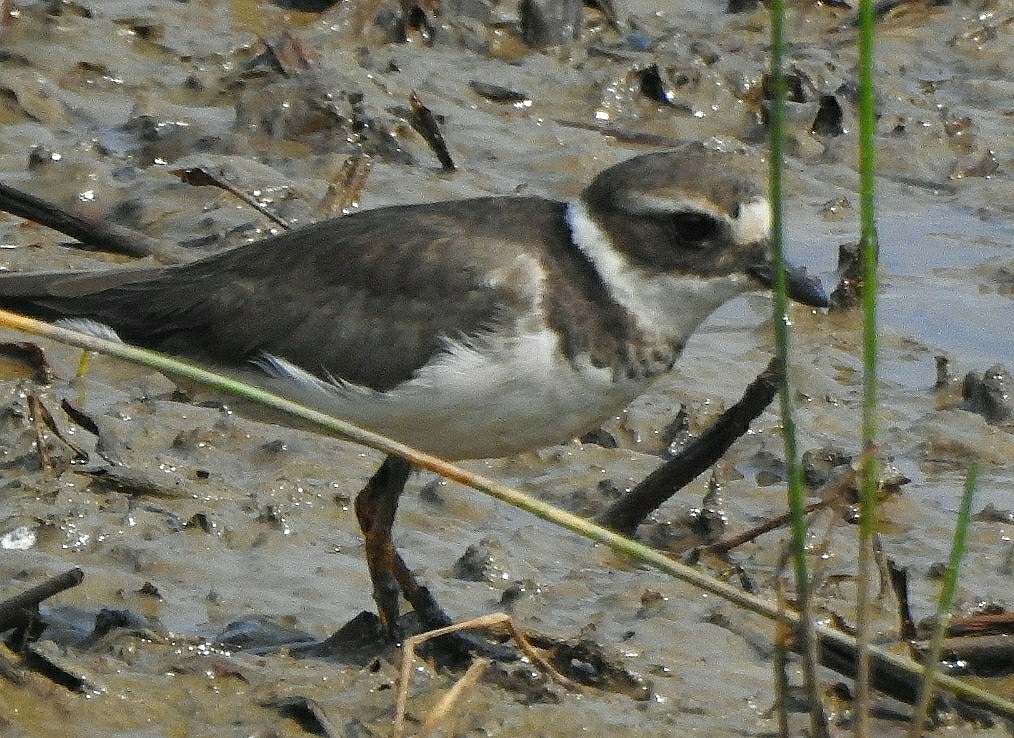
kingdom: Animalia
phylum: Chordata
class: Aves
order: Charadriiformes
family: Charadriidae
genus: Charadrius
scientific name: Charadrius hiaticula
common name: Common ringed plover
